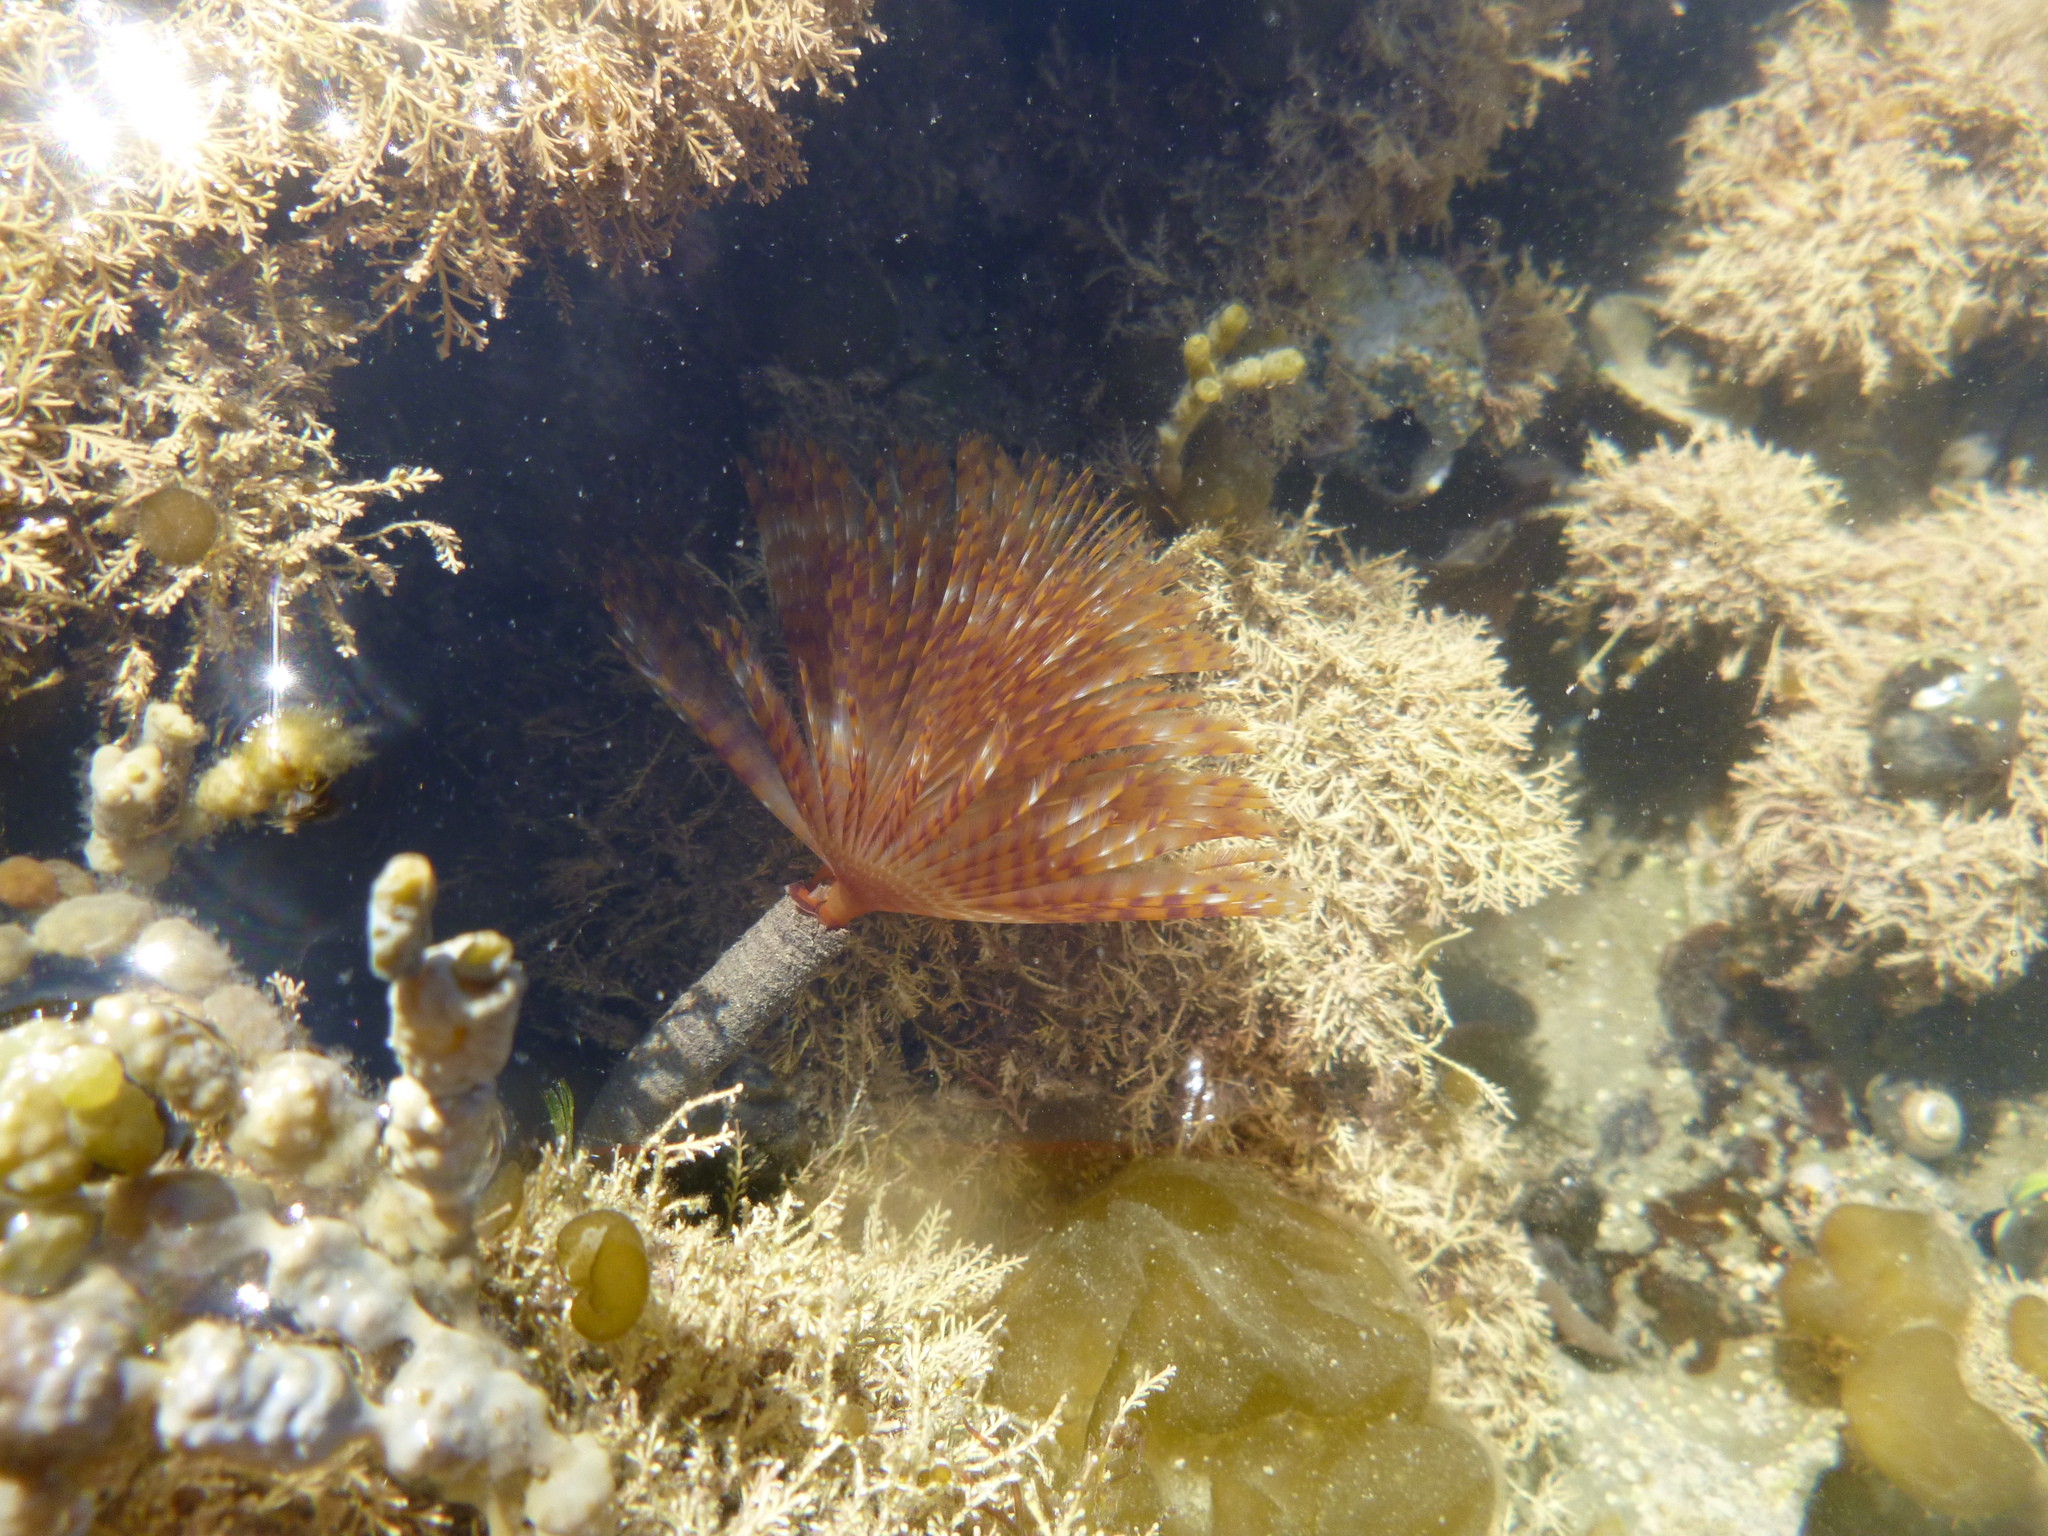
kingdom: Animalia
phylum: Annelida
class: Polychaeta
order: Sabellida
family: Sabellidae
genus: Sabella
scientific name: Sabella spallanzanii
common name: Feather duster worm
